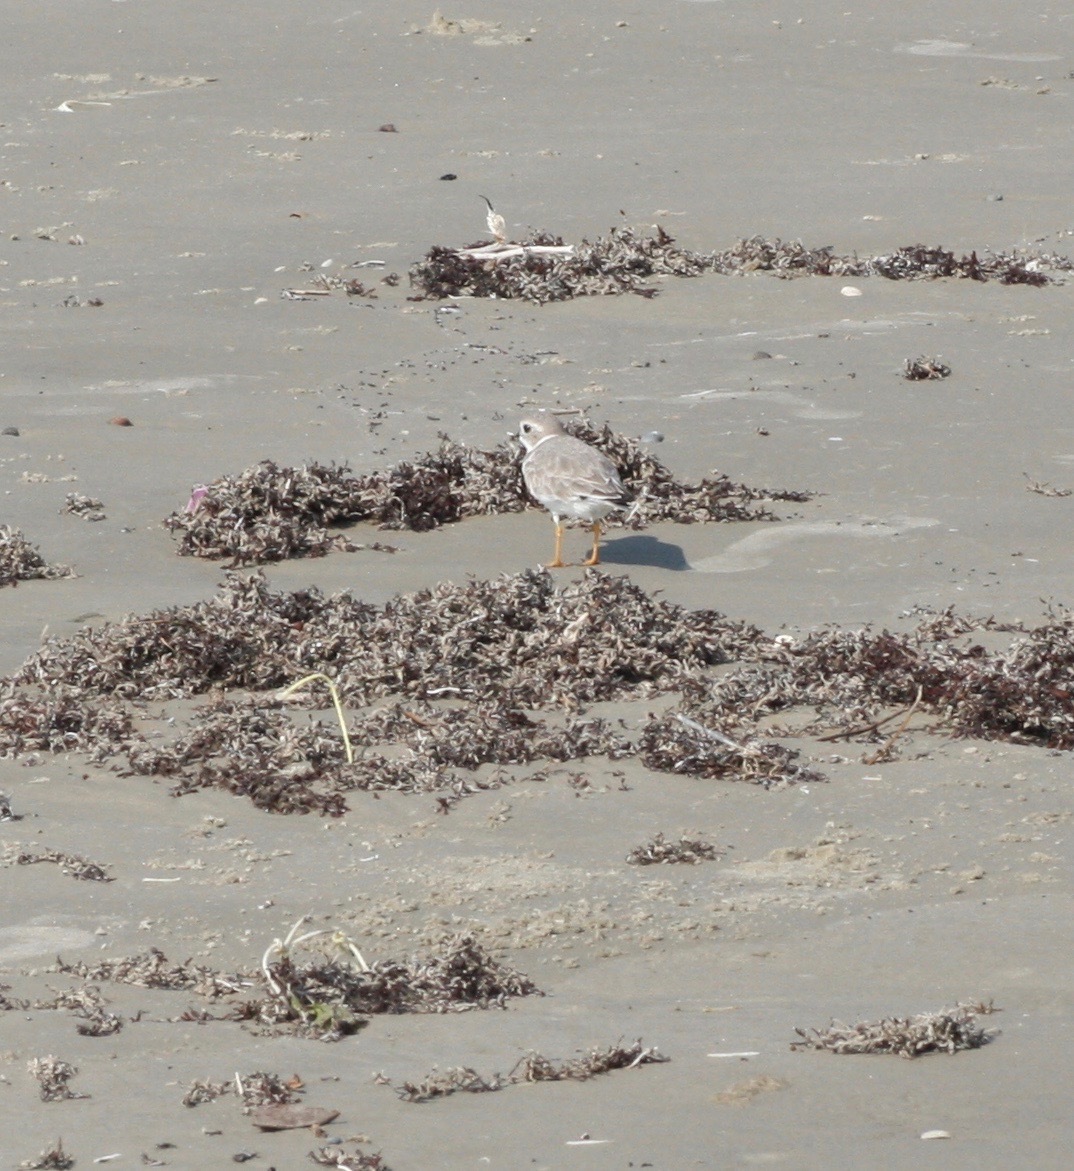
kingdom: Animalia
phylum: Chordata
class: Aves
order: Charadriiformes
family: Charadriidae
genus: Charadrius
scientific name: Charadrius melodus
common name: Piping plover
